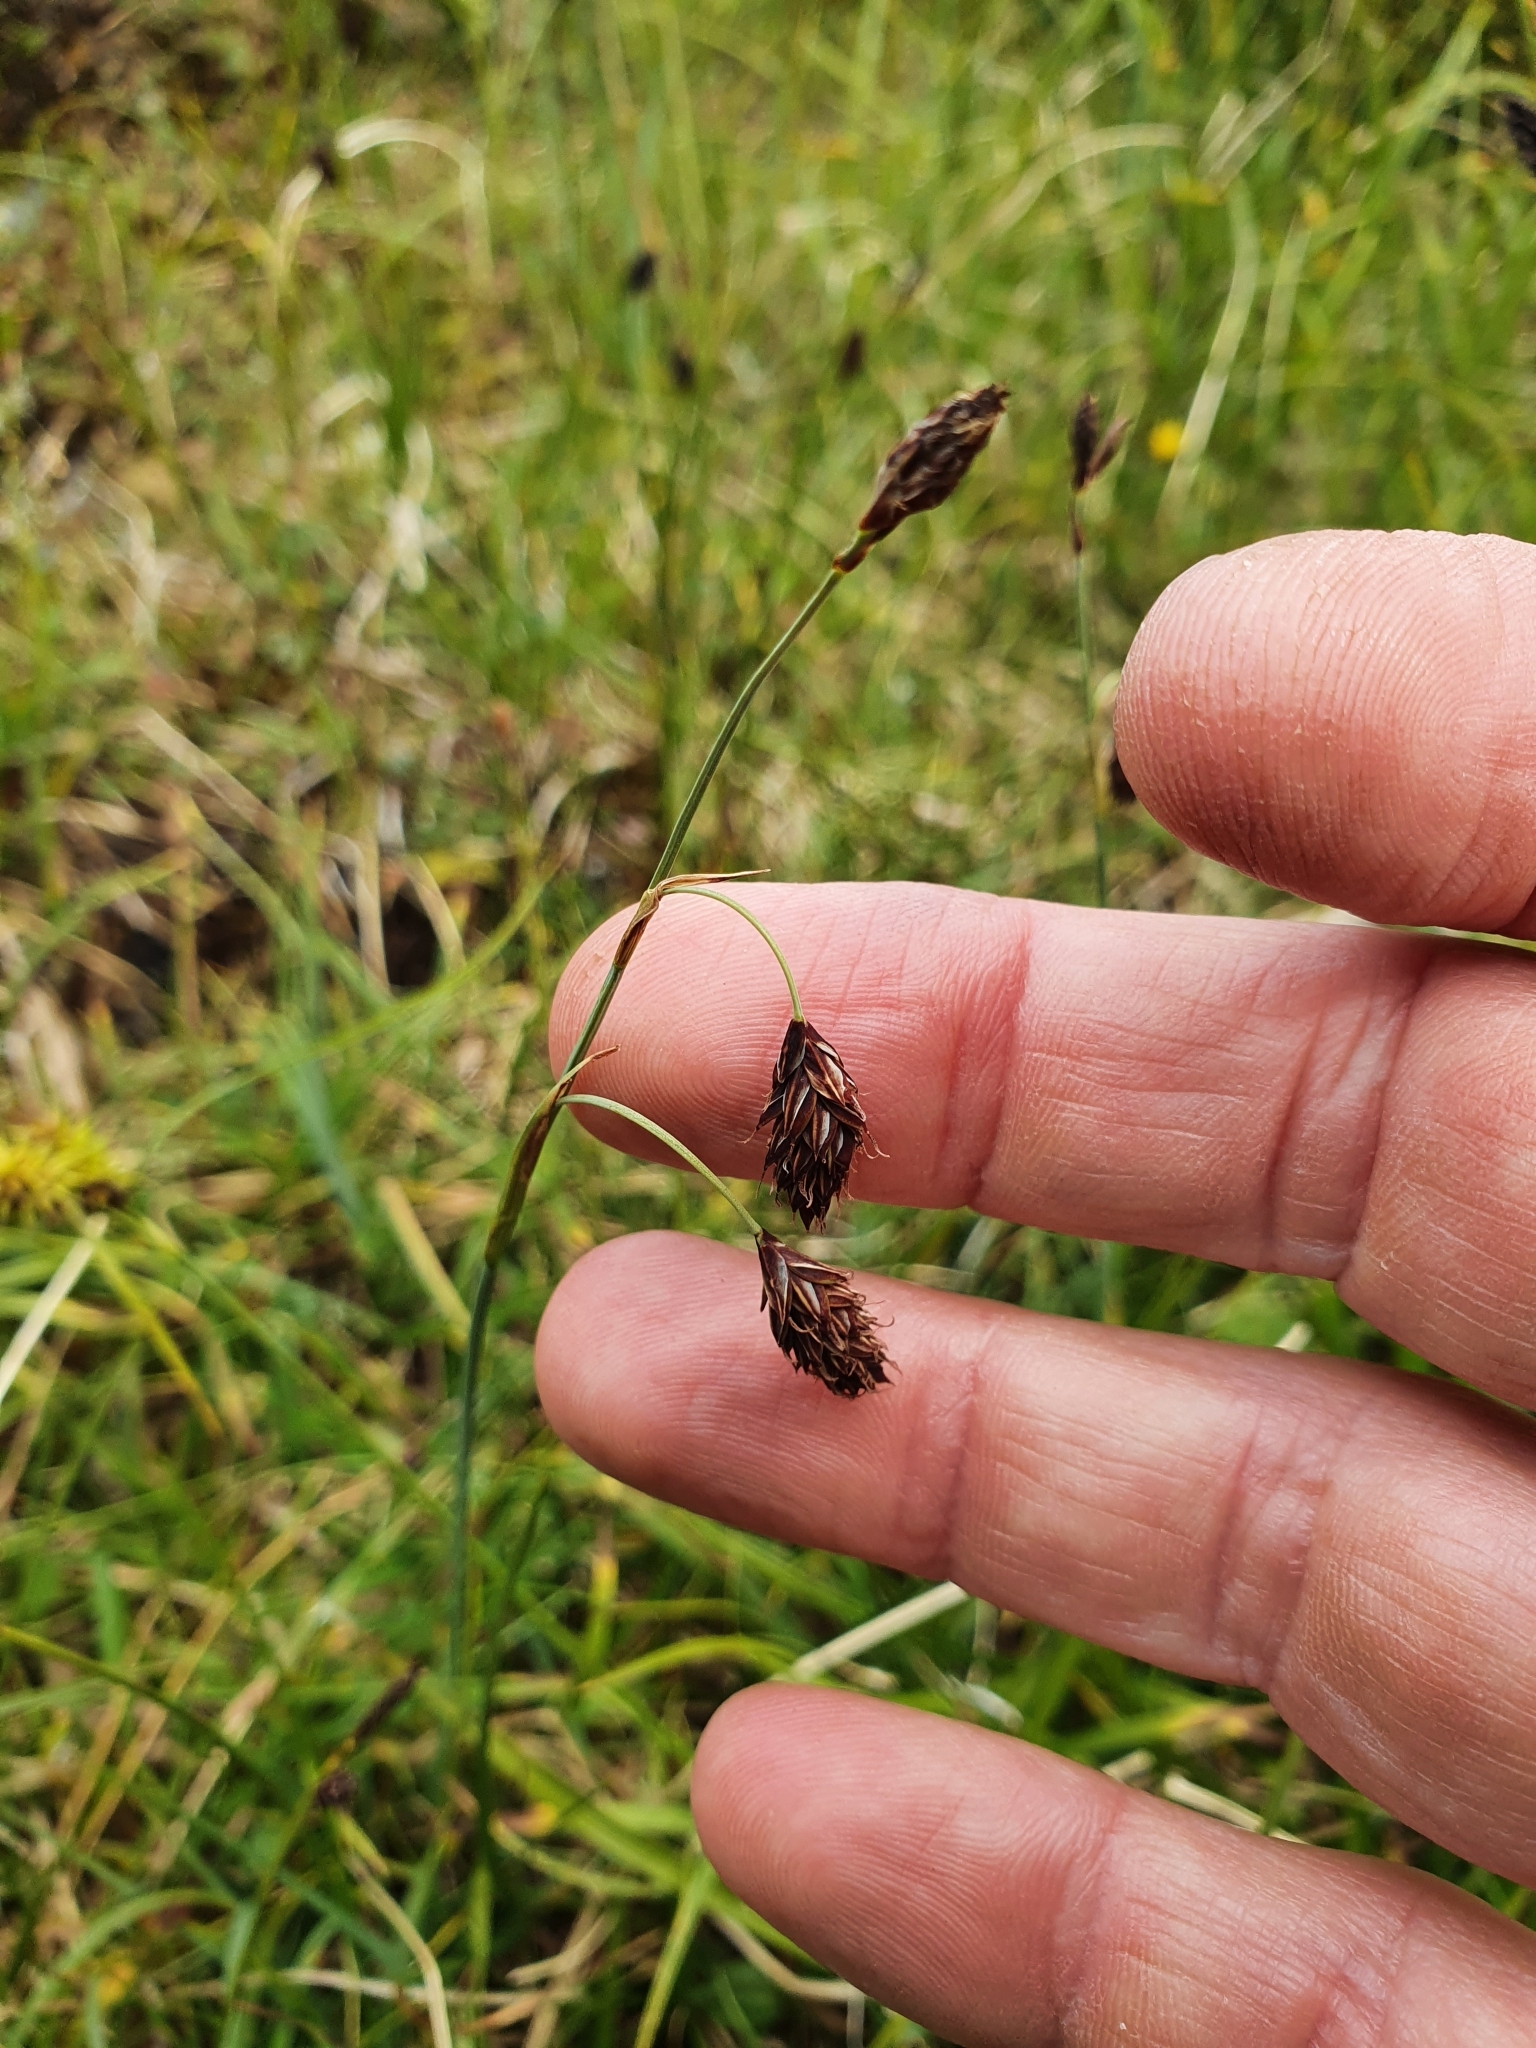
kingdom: Plantae
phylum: Tracheophyta
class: Liliopsida
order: Poales
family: Cyperaceae
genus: Carex
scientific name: Carex atrofusca
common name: Scorched alpine-sedge
